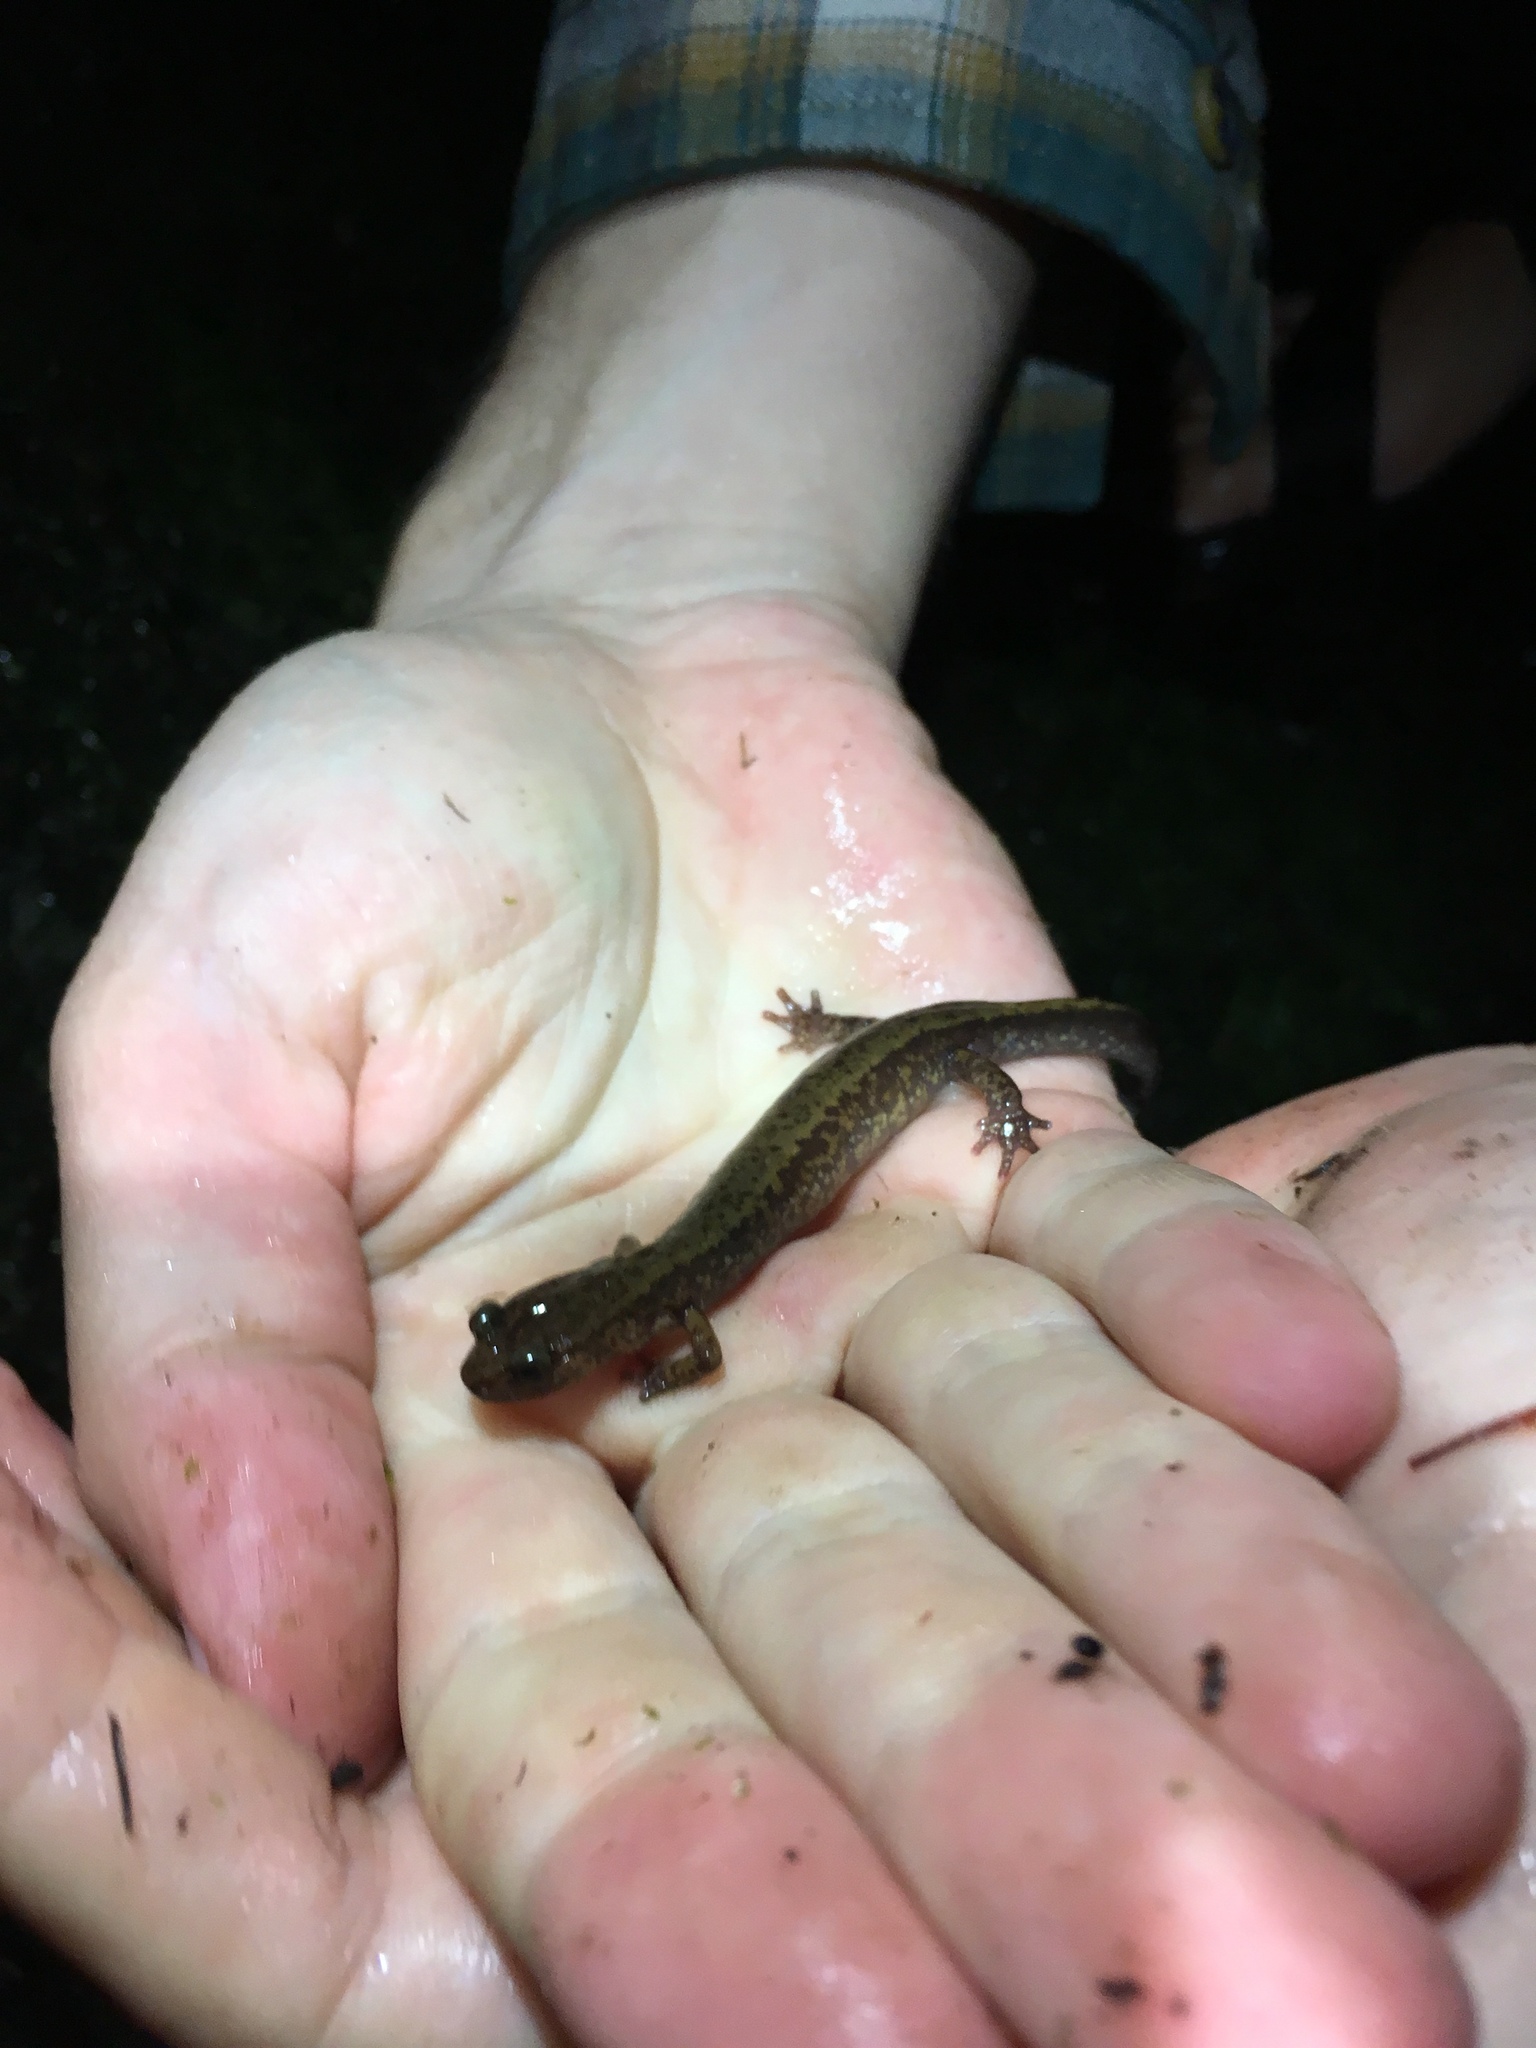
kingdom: Animalia
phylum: Chordata
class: Amphibia
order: Caudata
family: Plethodontidae
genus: Plethodon
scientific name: Plethodon dunni
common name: Dunn's salamander
